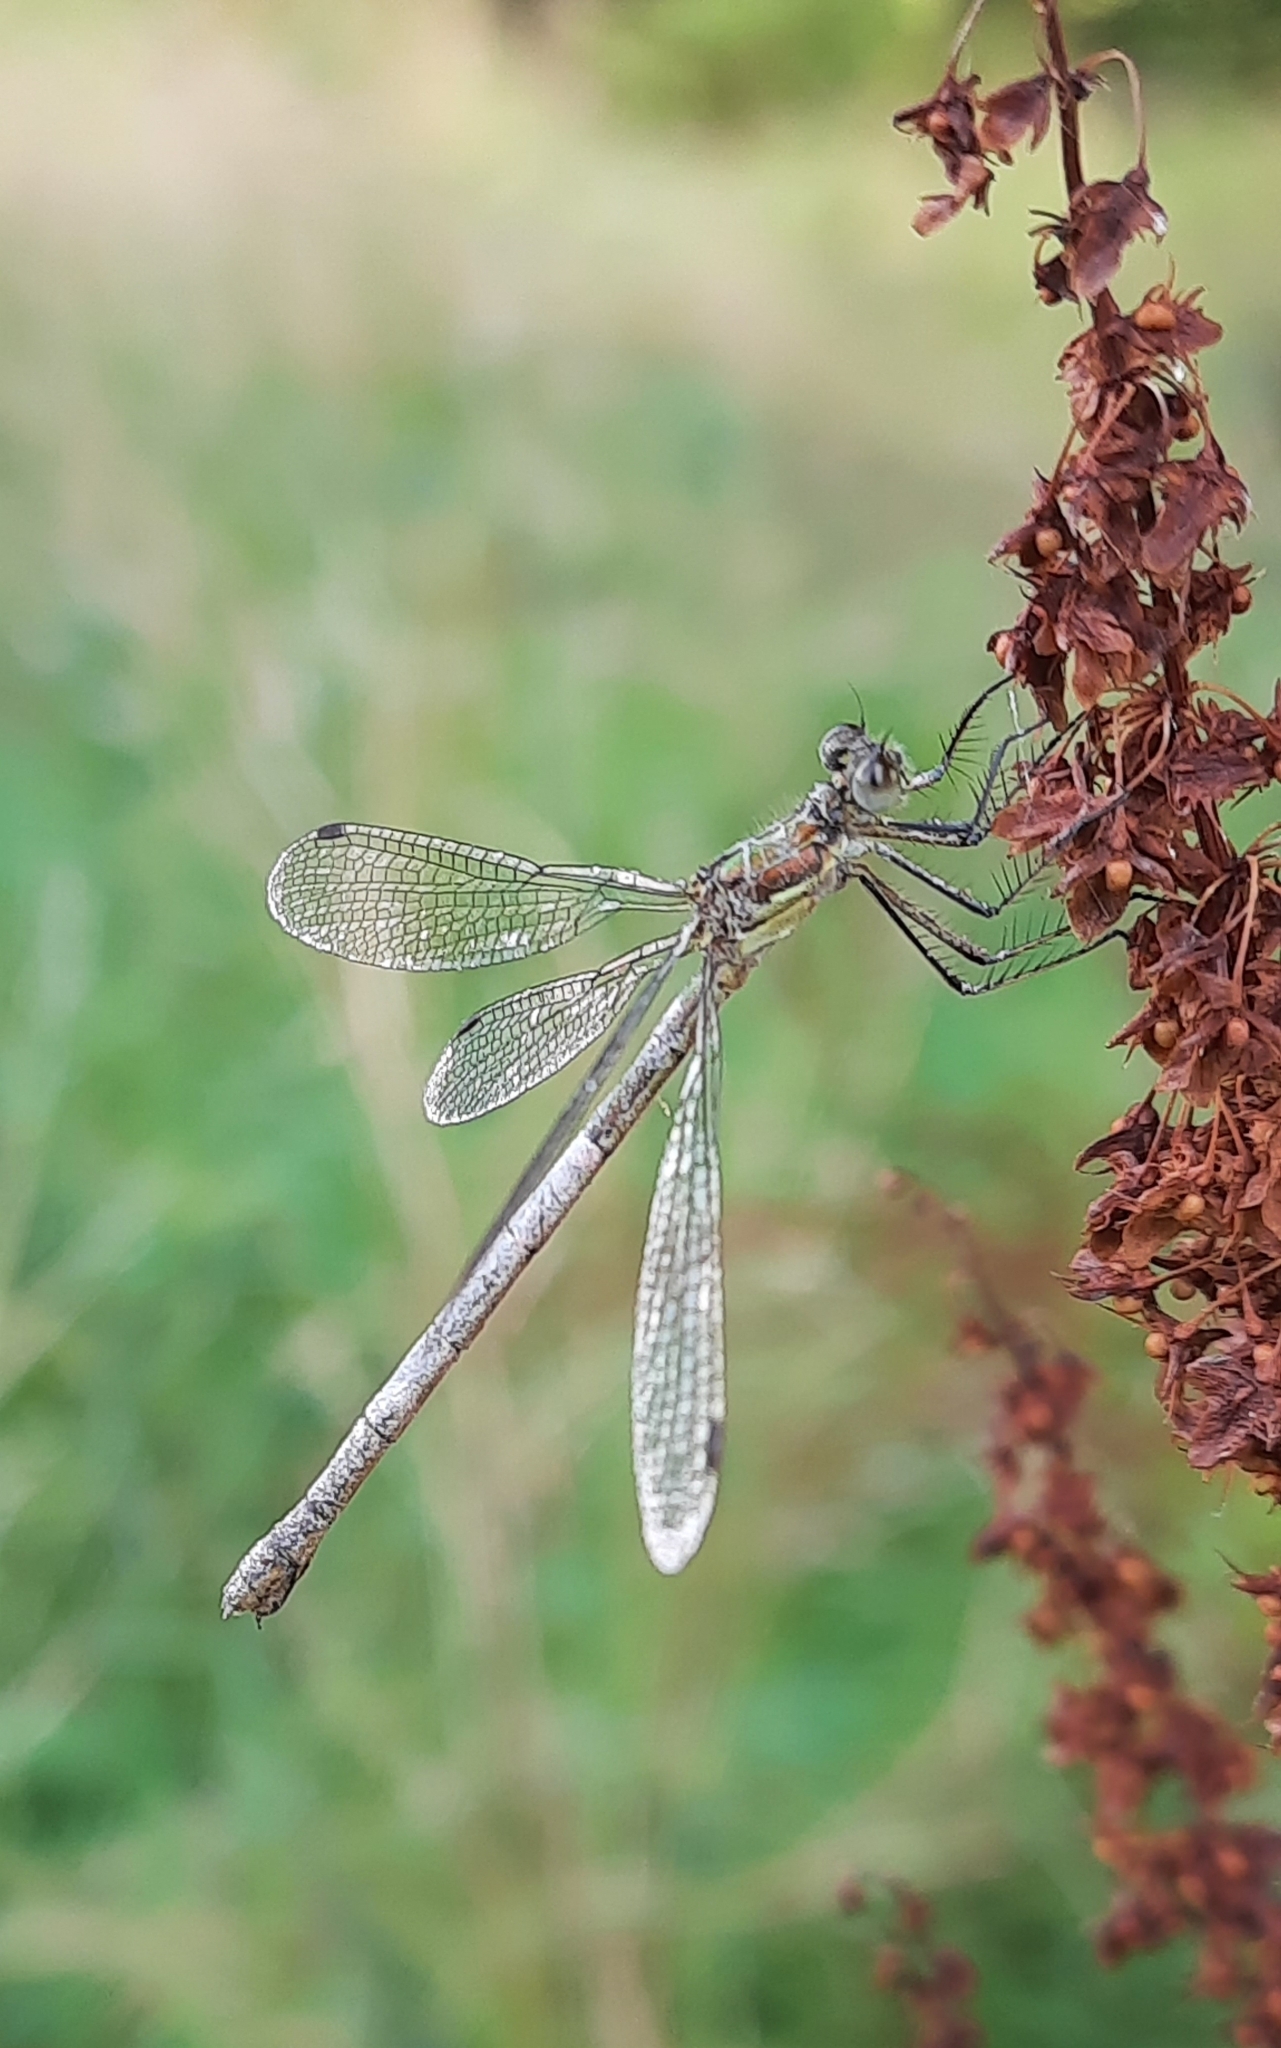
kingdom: Animalia
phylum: Arthropoda
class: Insecta
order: Odonata
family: Lestidae
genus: Lestes
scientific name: Lestes sponsa
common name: Common spreadwing
